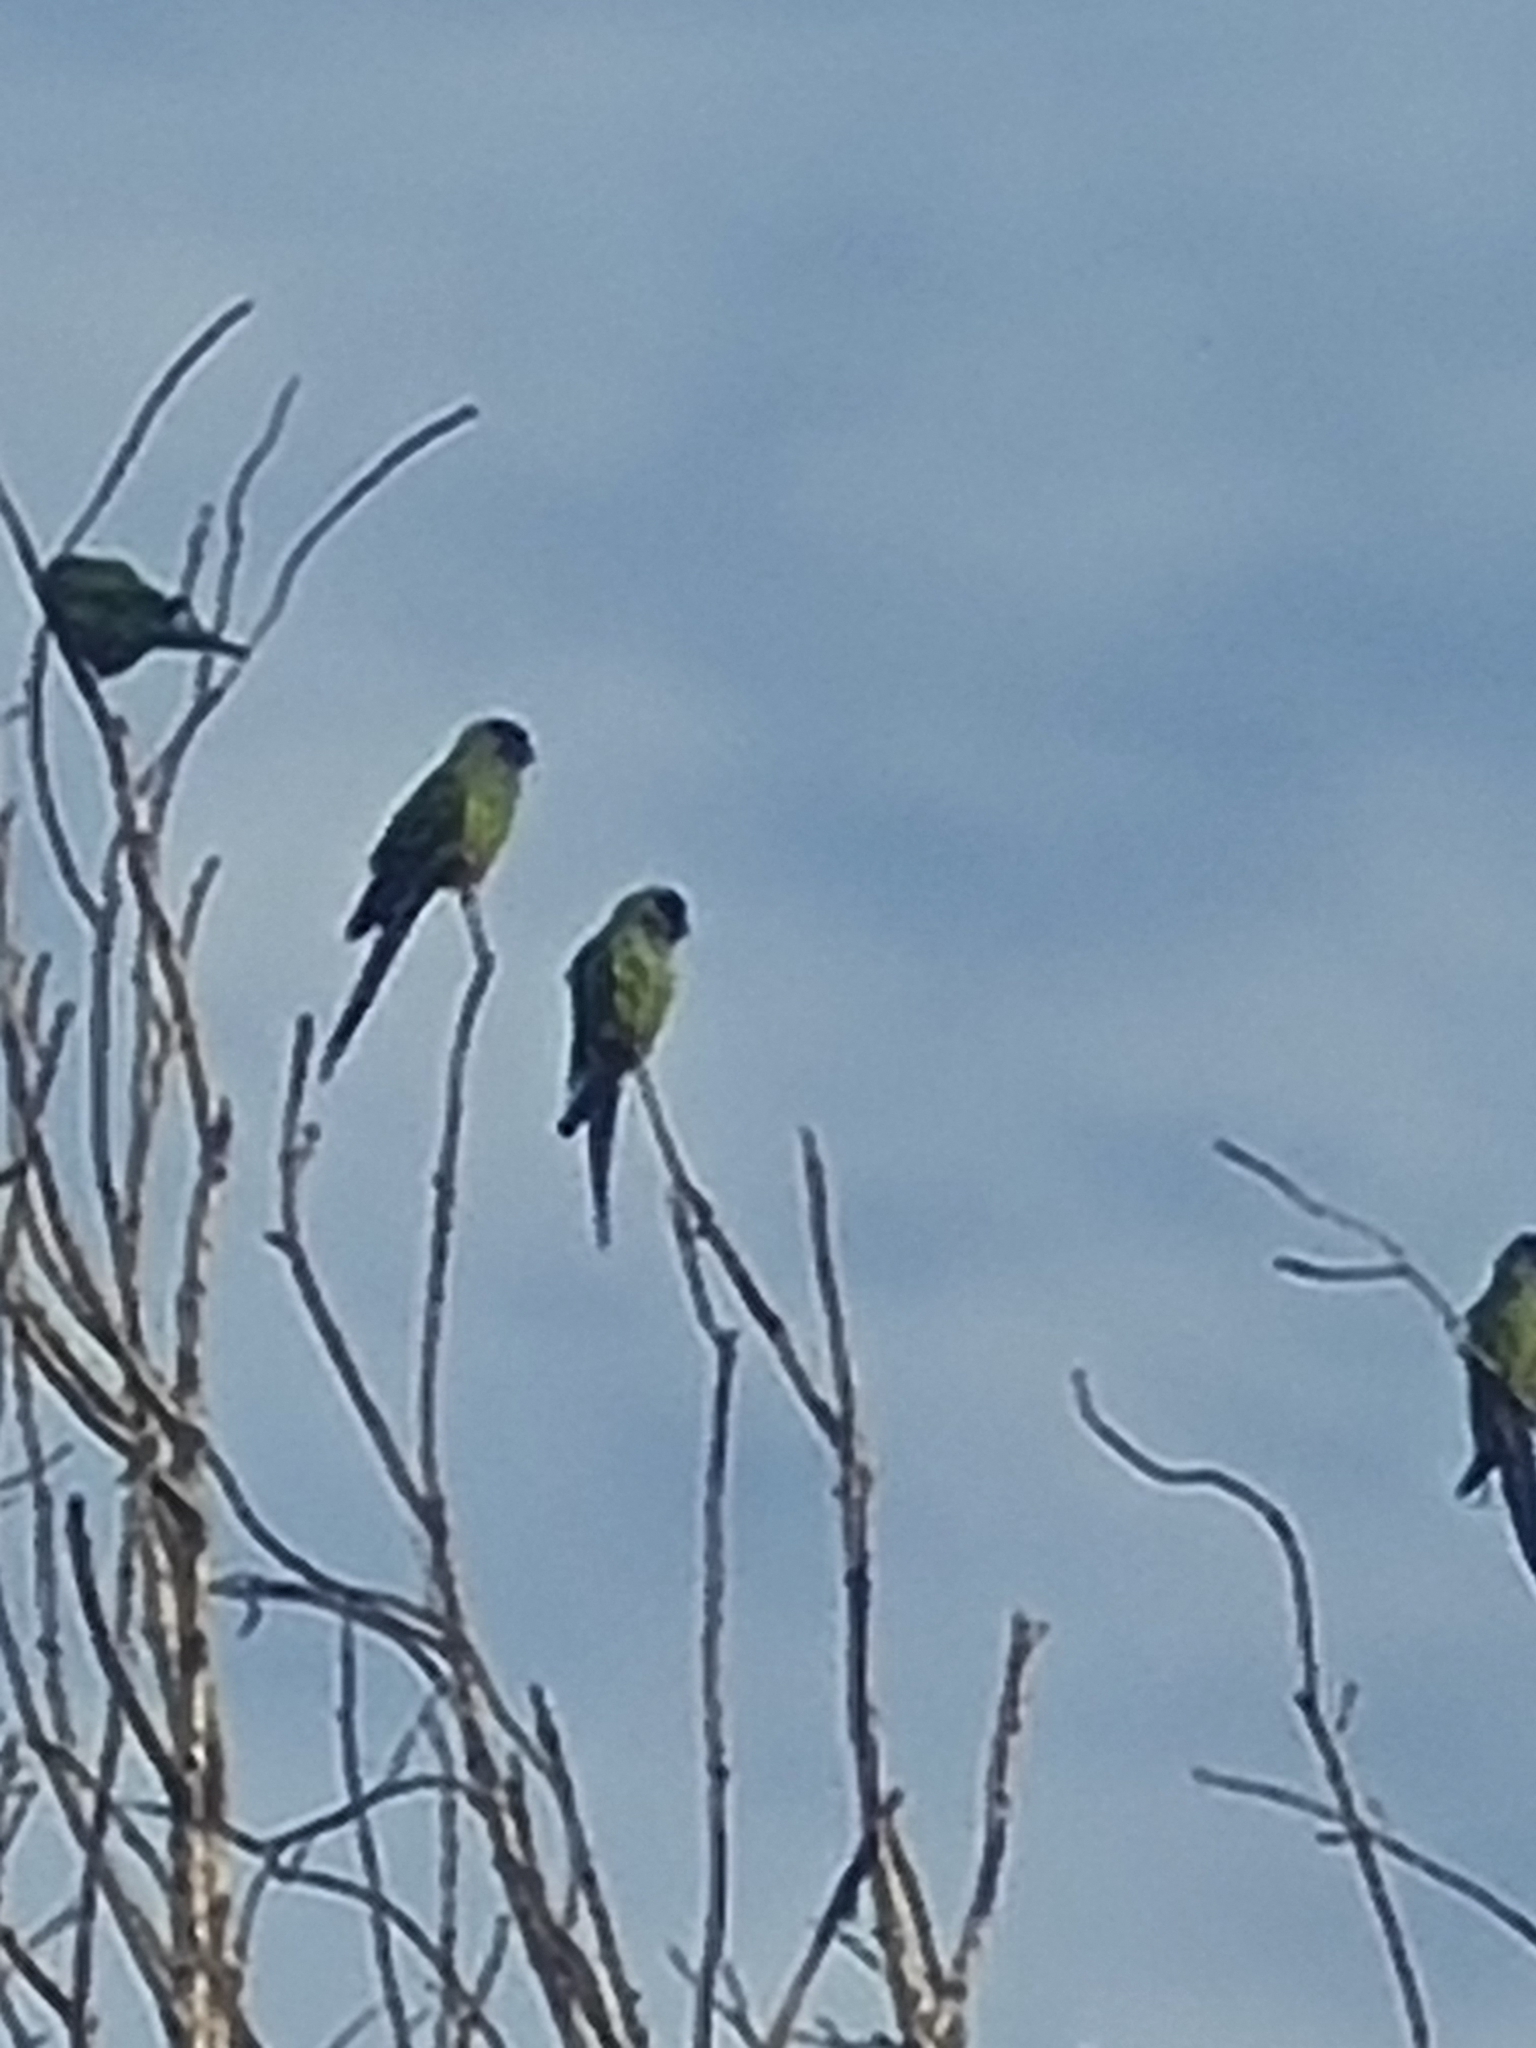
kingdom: Animalia
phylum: Chordata
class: Aves
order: Psittaciformes
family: Psittacidae
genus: Nandayus
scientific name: Nandayus nenday
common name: Nanday parakeet
